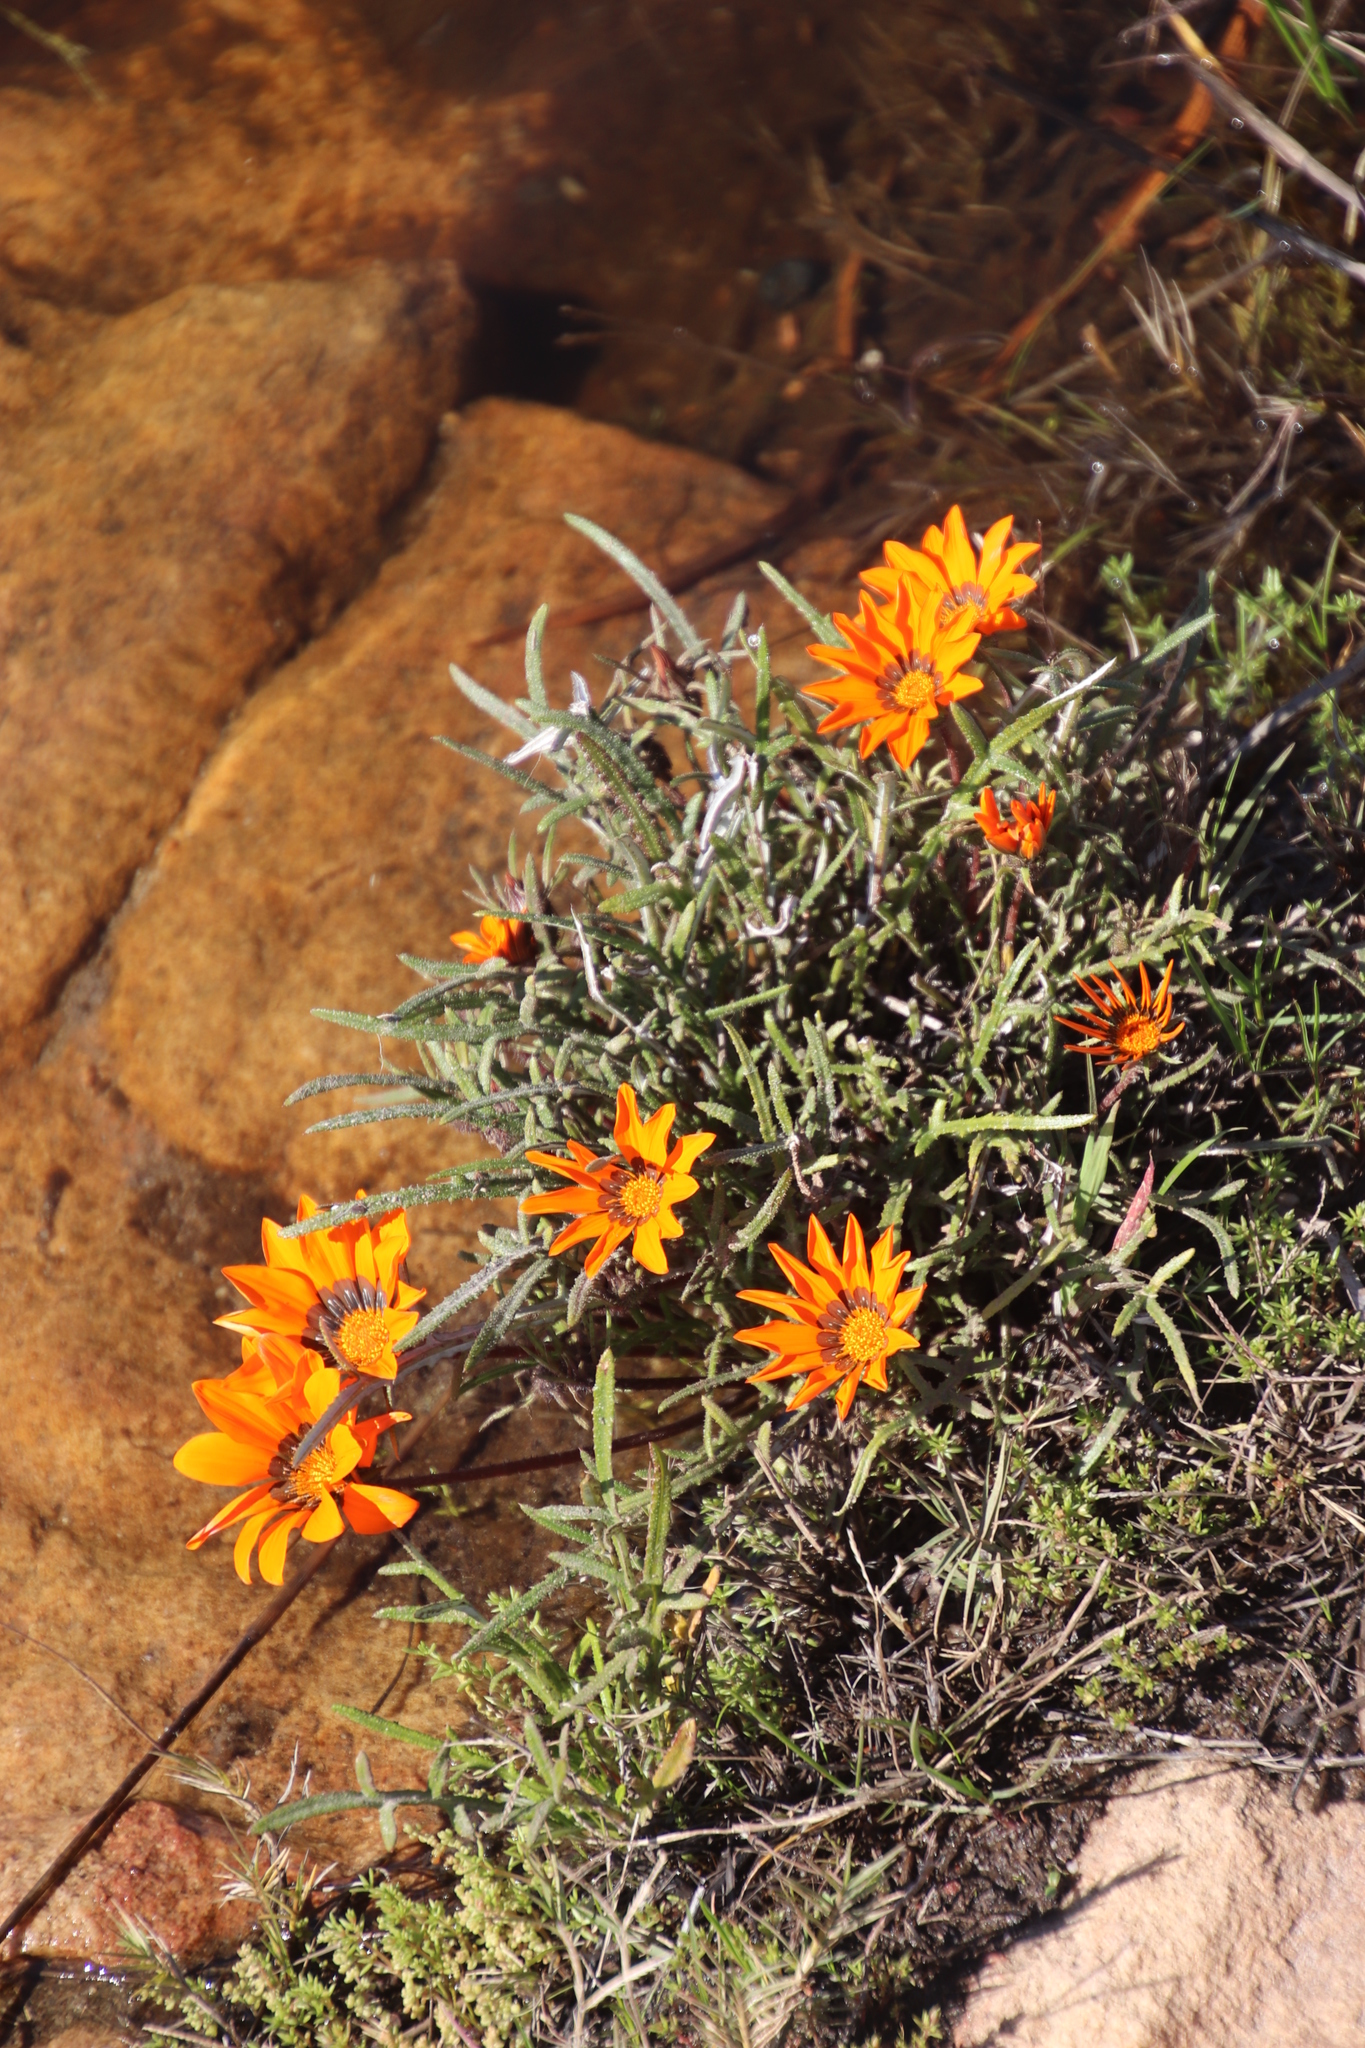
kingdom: Plantae
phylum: Tracheophyta
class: Magnoliopsida
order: Asterales
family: Asteraceae
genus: Gazania
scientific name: Gazania serrata
